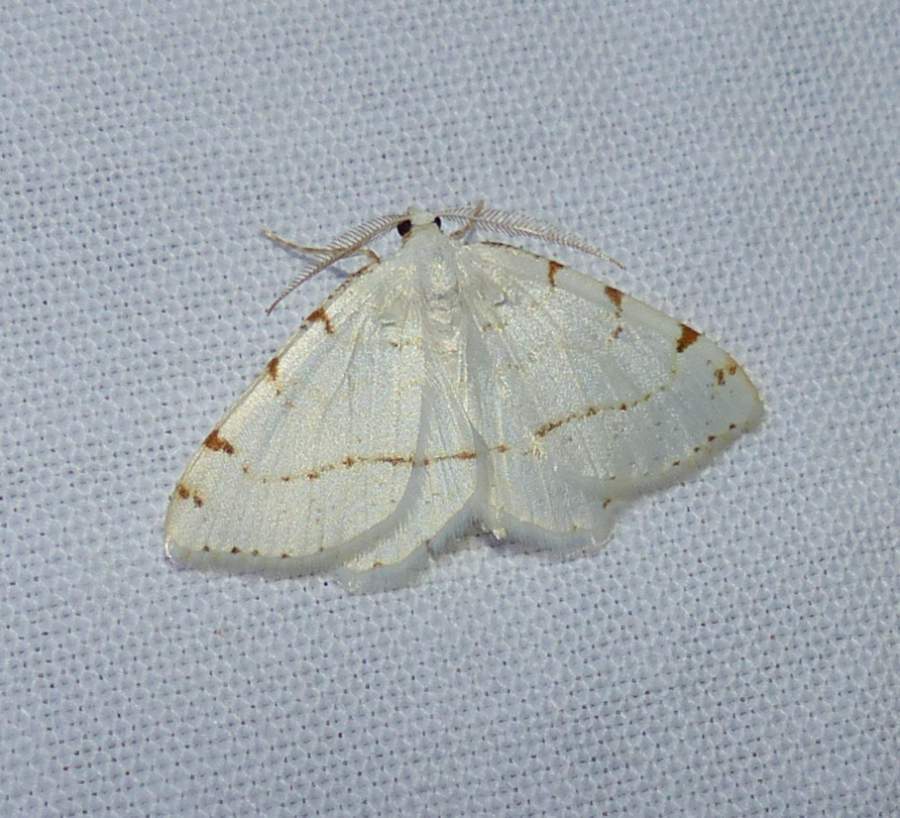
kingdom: Animalia
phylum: Arthropoda
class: Insecta
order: Lepidoptera
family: Geometridae
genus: Macaria
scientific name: Macaria pustularia
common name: Lesser maple spanworm moth
